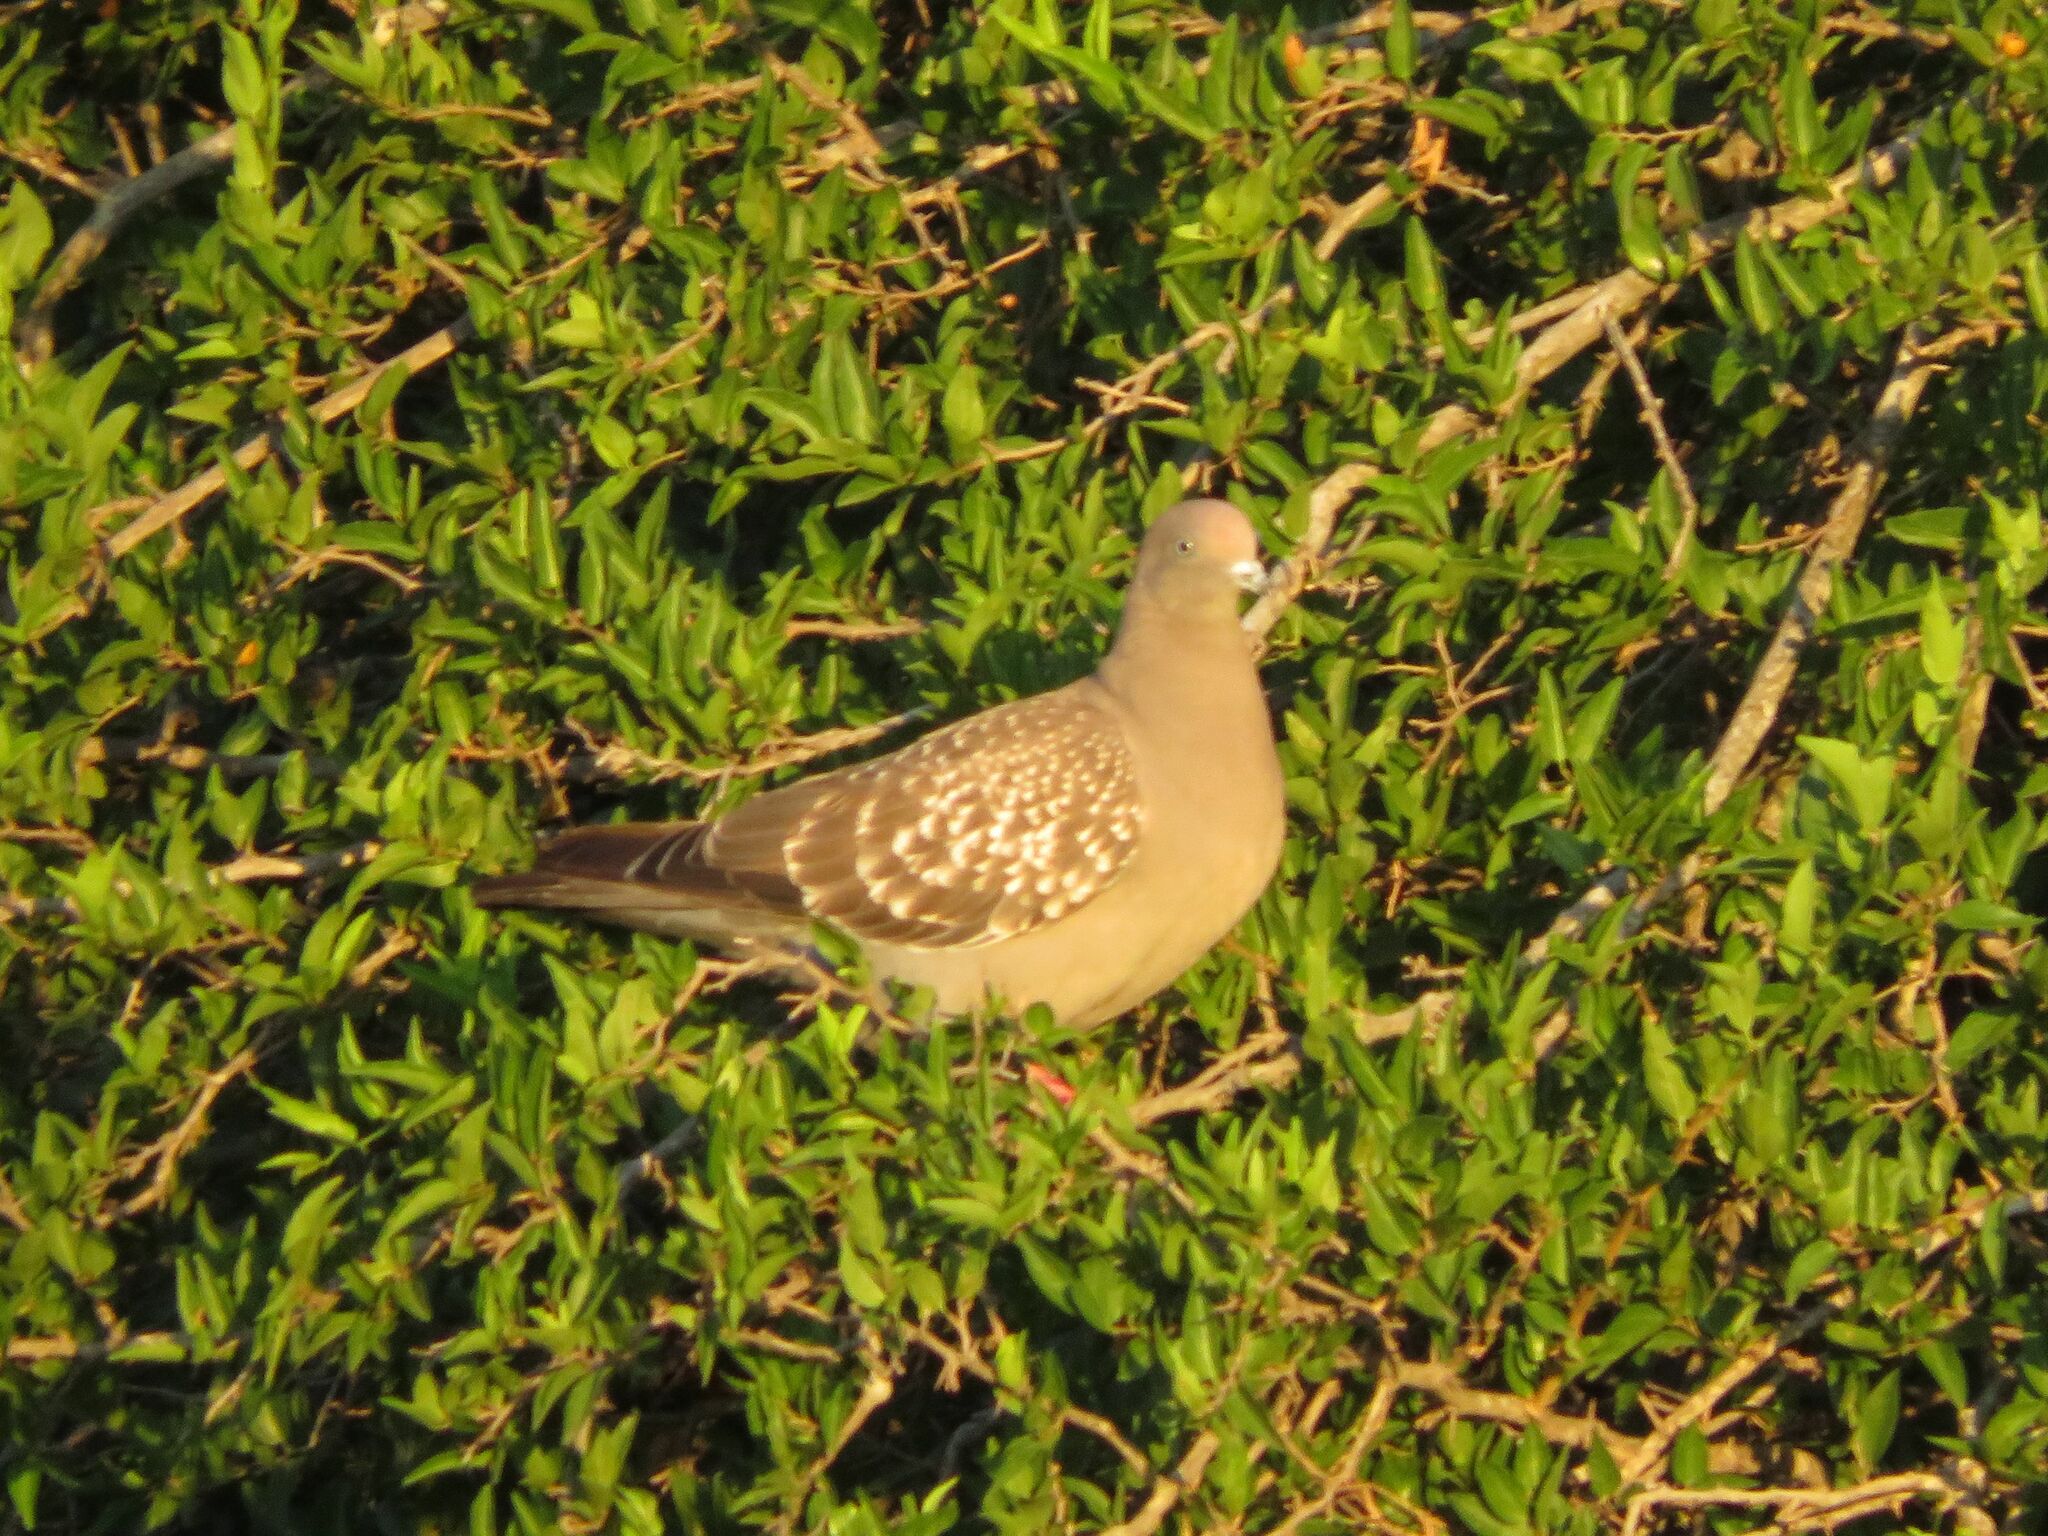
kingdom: Animalia
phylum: Chordata
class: Aves
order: Columbiformes
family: Columbidae
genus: Patagioenas
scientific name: Patagioenas maculosa
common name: Spot-winged pigeon
